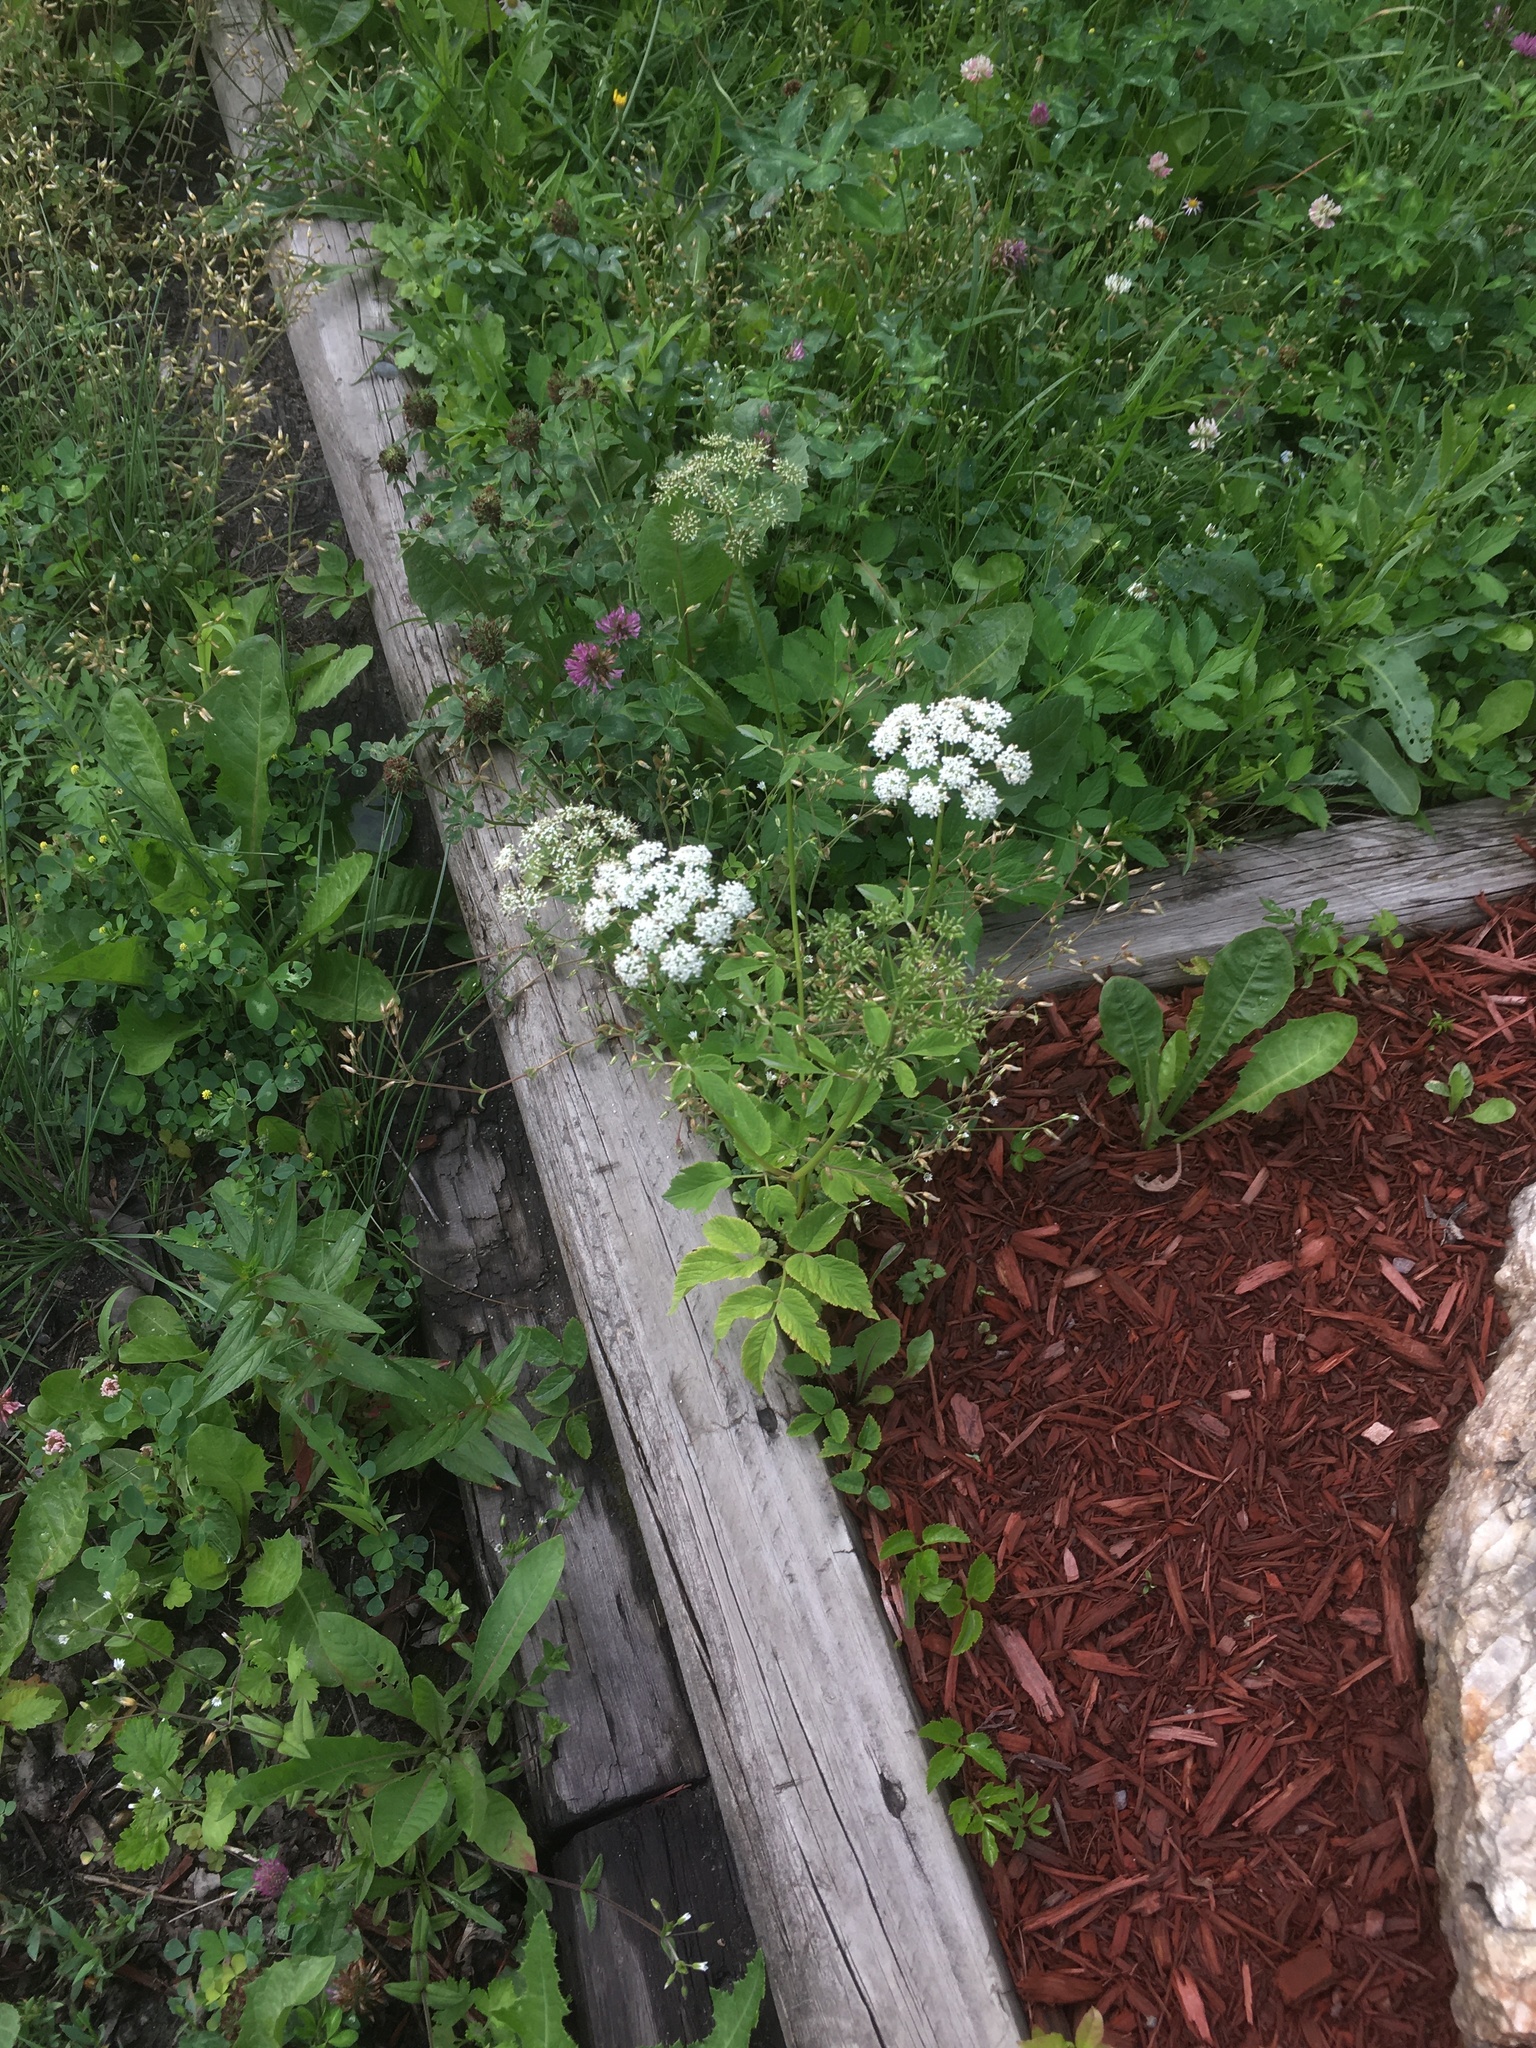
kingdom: Plantae
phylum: Tracheophyta
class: Magnoliopsida
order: Apiales
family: Apiaceae
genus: Aegopodium
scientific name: Aegopodium podagraria
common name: Ground-elder
